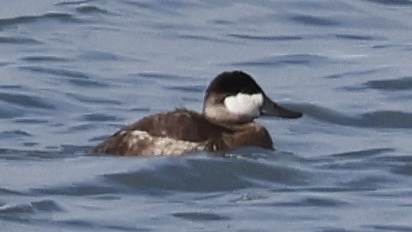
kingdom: Animalia
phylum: Chordata
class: Aves
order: Anseriformes
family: Anatidae
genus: Oxyura
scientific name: Oxyura jamaicensis
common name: Ruddy duck
